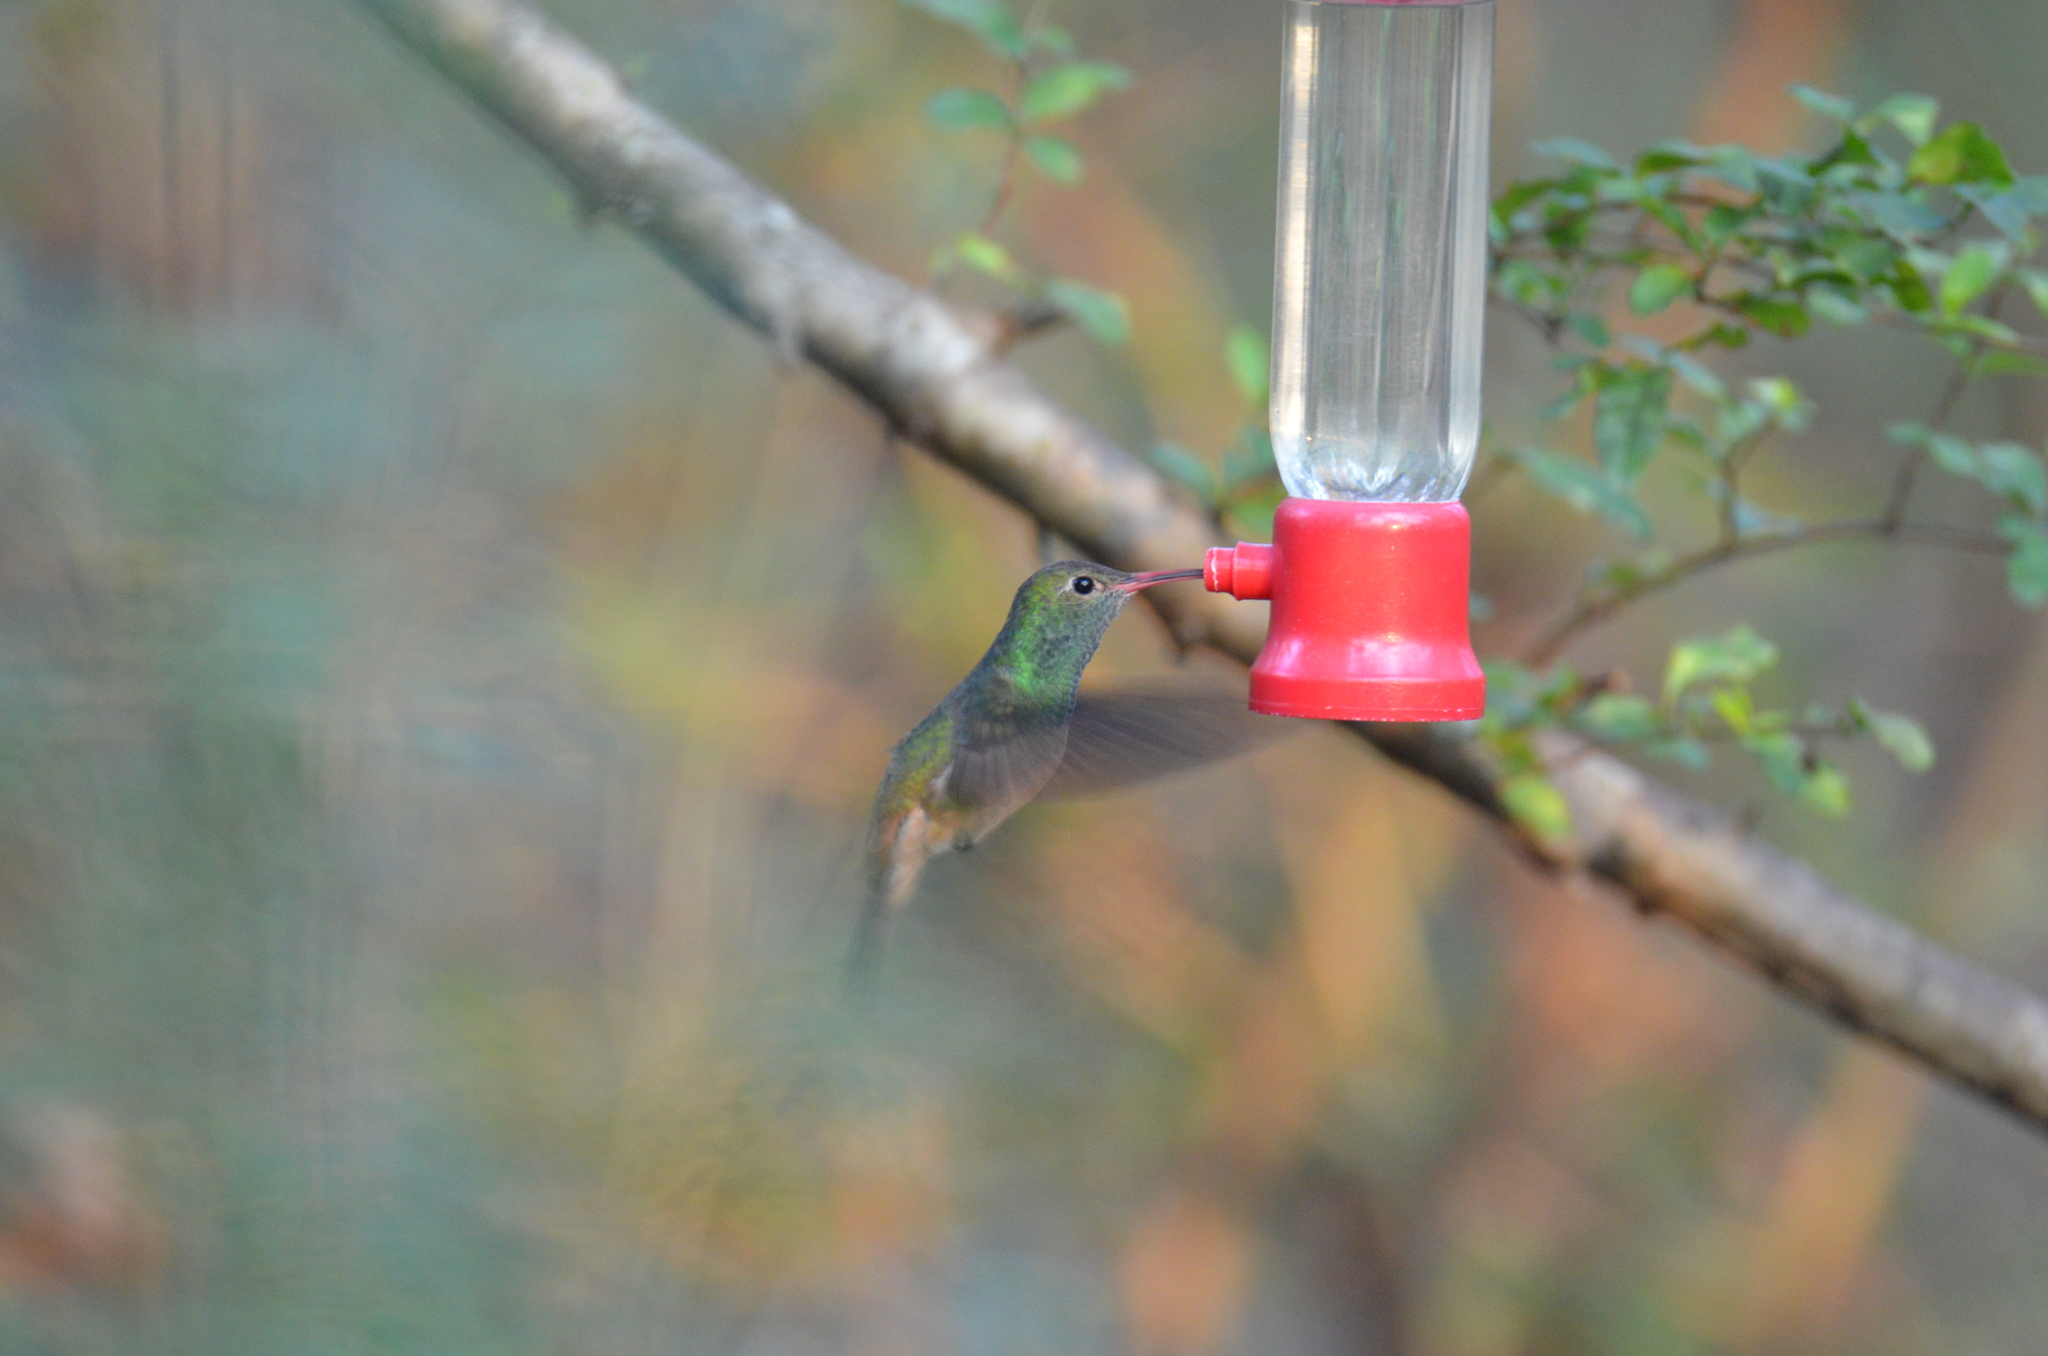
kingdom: Animalia
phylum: Chordata
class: Aves
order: Apodiformes
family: Trochilidae
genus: Amazilia
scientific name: Amazilia yucatanensis
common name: Buff-bellied hummingbird
